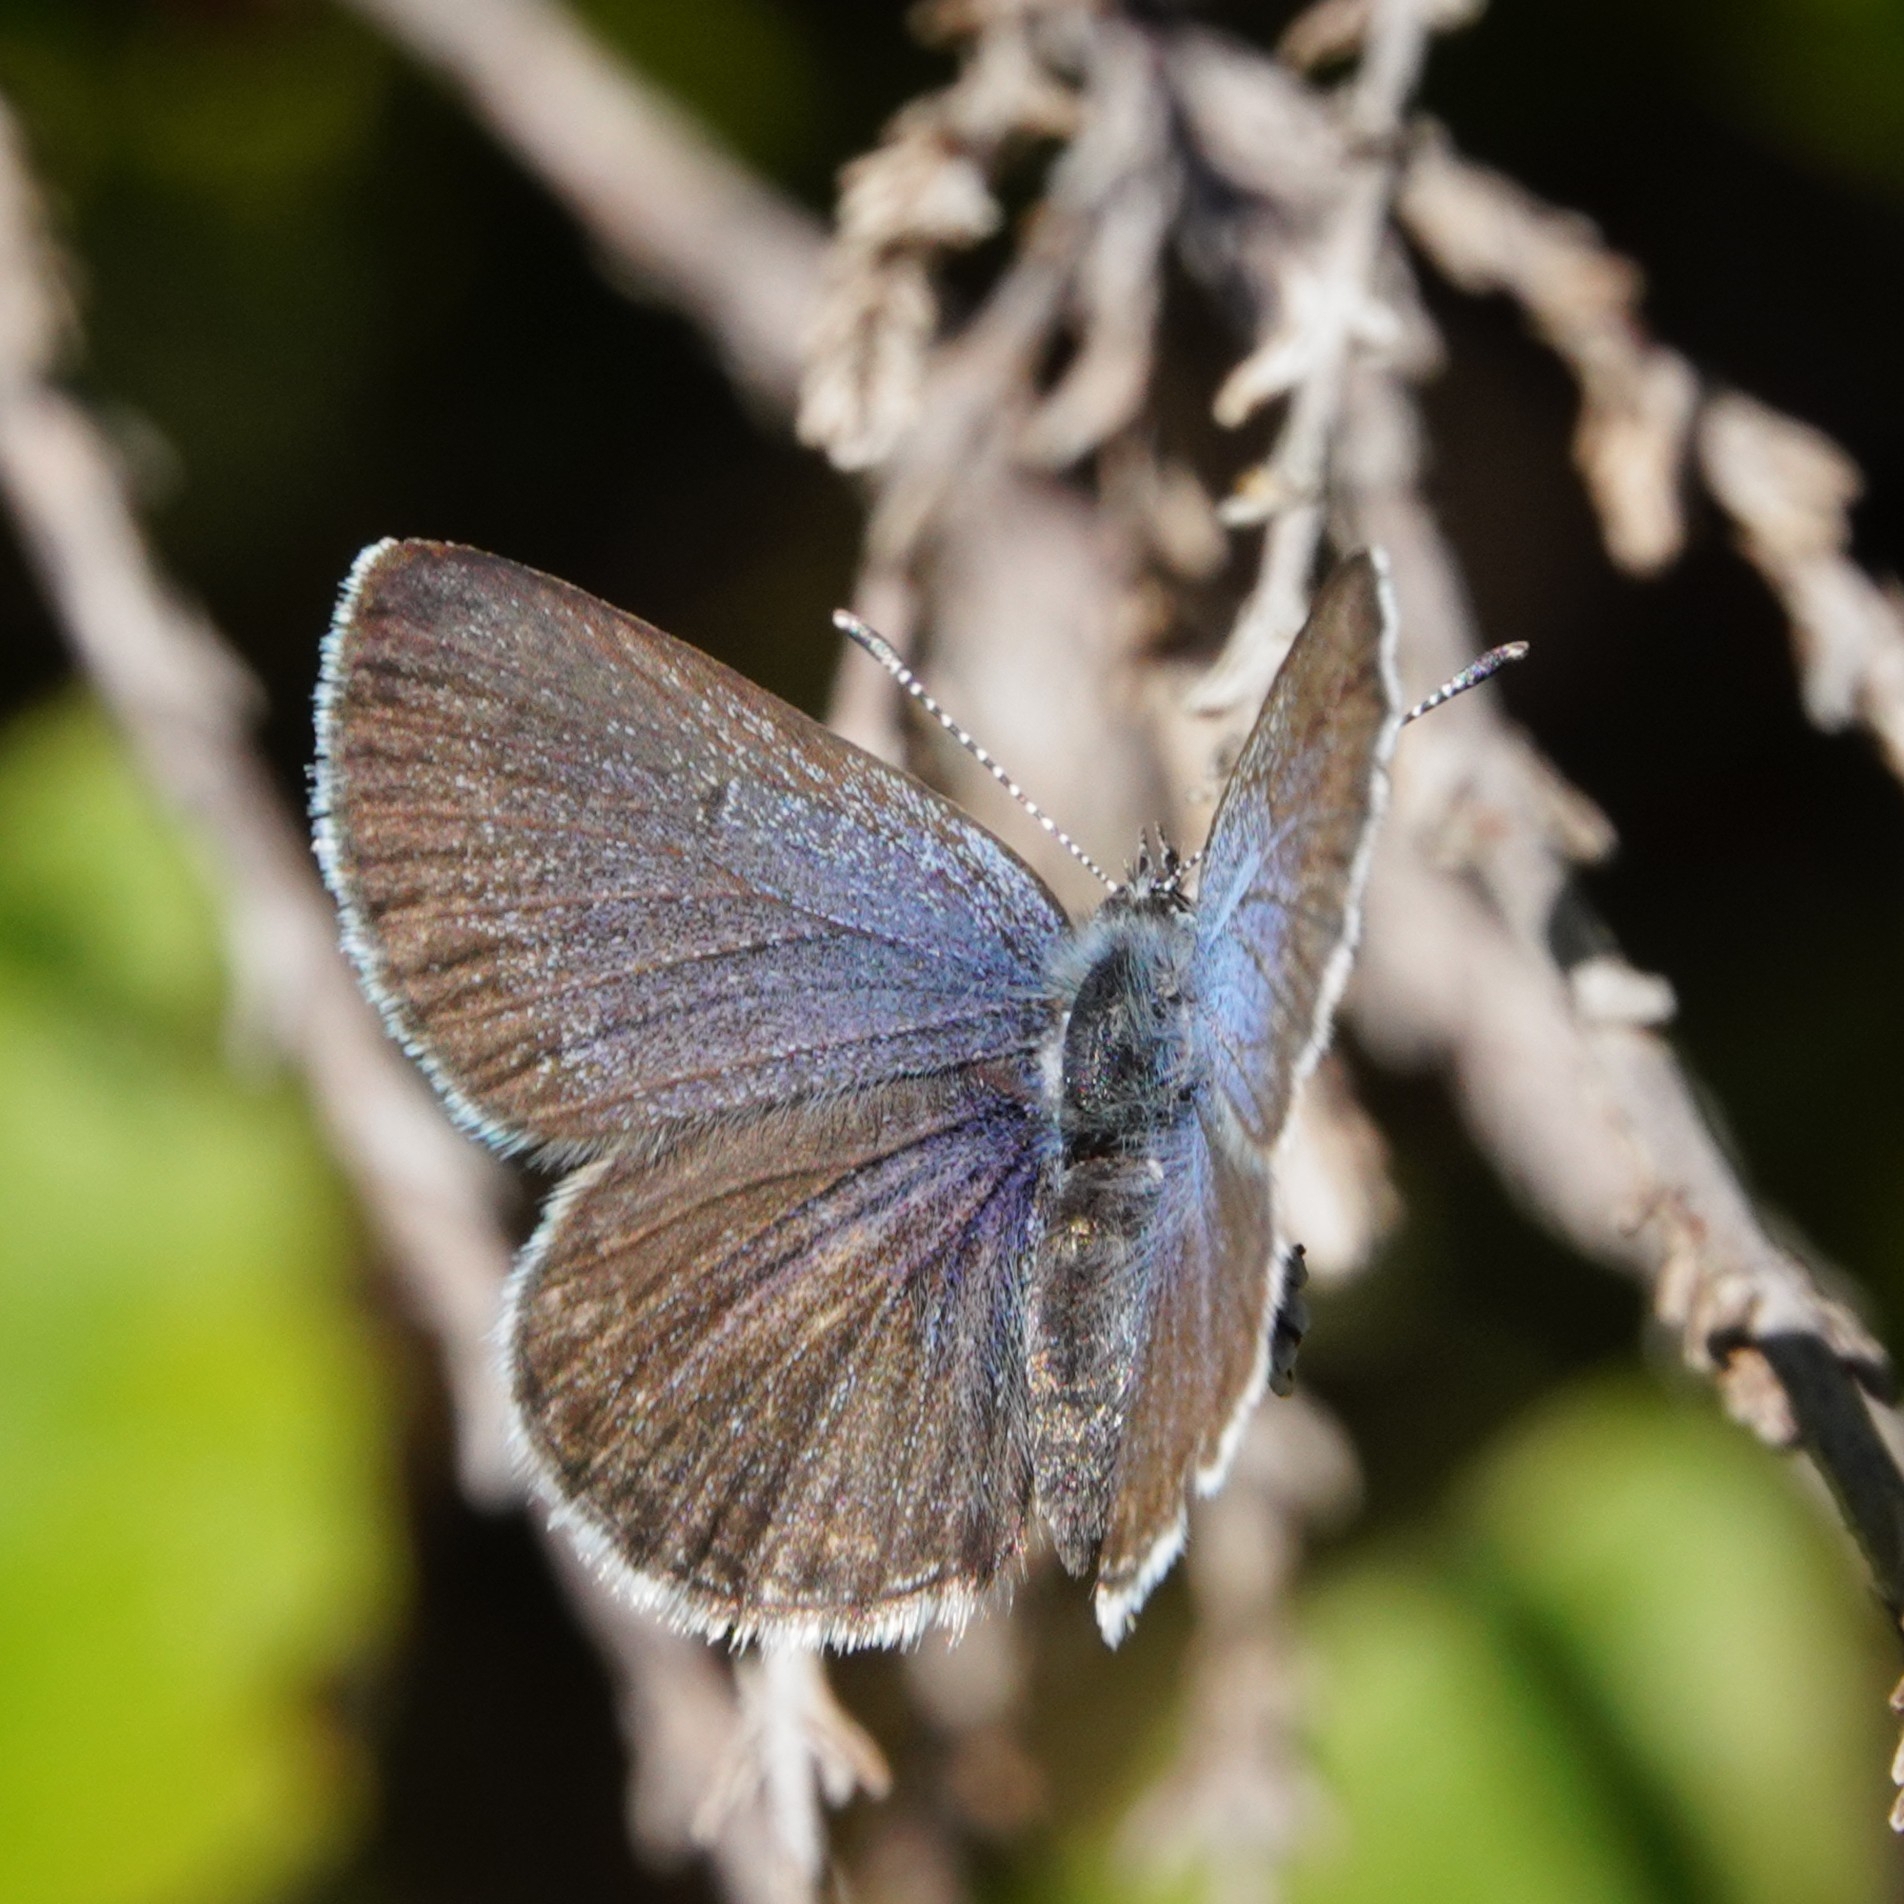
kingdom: Animalia
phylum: Arthropoda
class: Insecta
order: Lepidoptera
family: Lycaenidae
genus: Vacciniina
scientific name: Vacciniina optilete
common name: Cranberry blue
